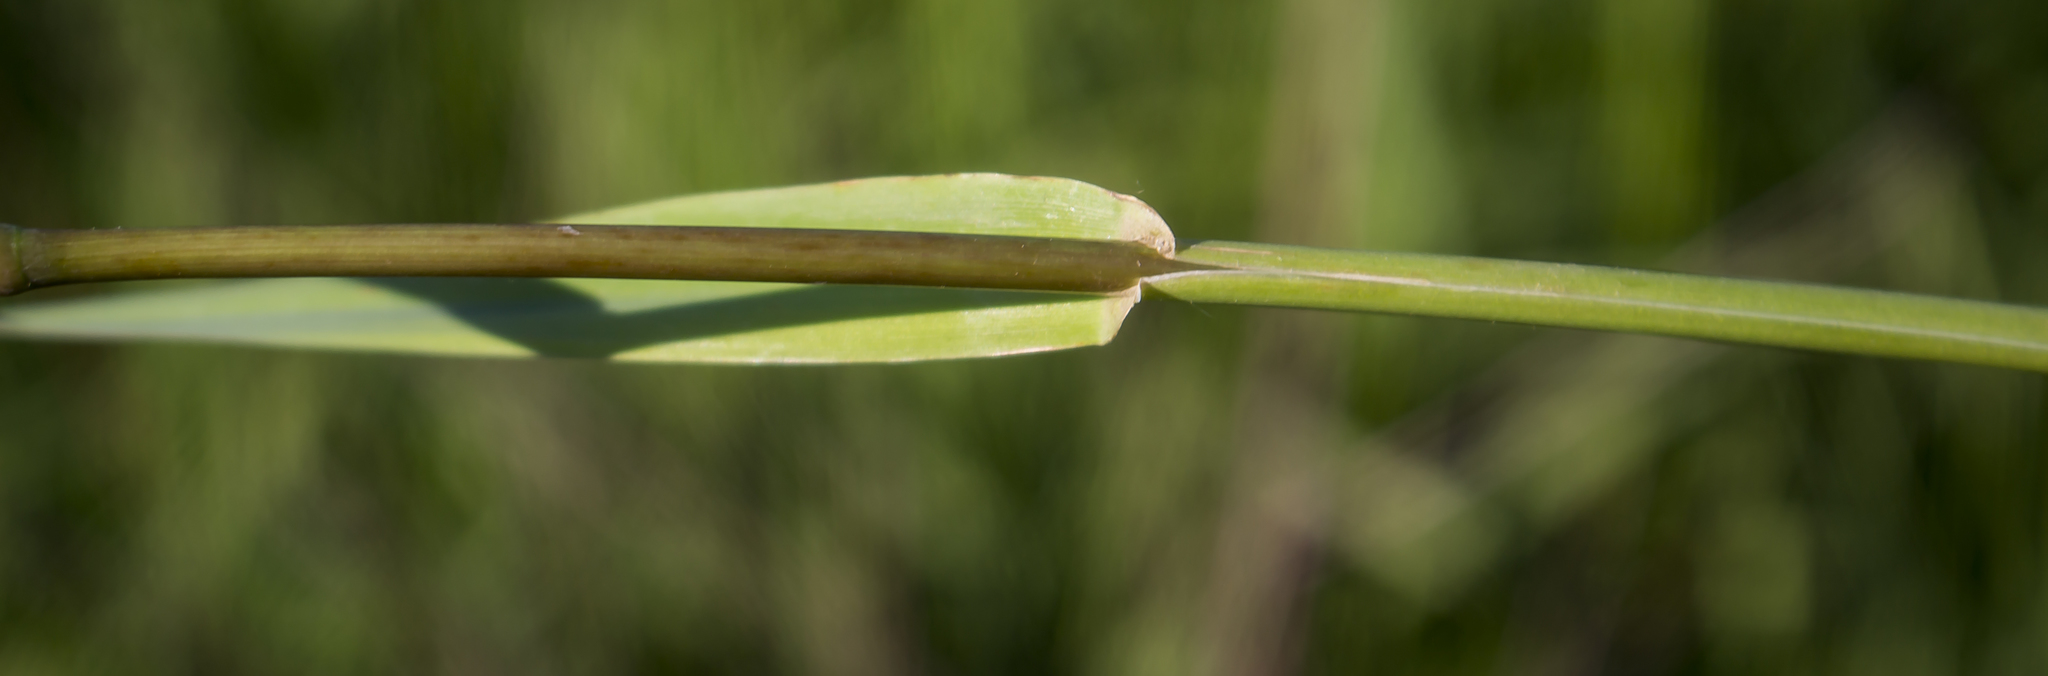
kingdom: Plantae
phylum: Tracheophyta
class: Liliopsida
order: Poales
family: Poaceae
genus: Phalaris
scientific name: Phalaris arundinacea
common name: Reed canary-grass
